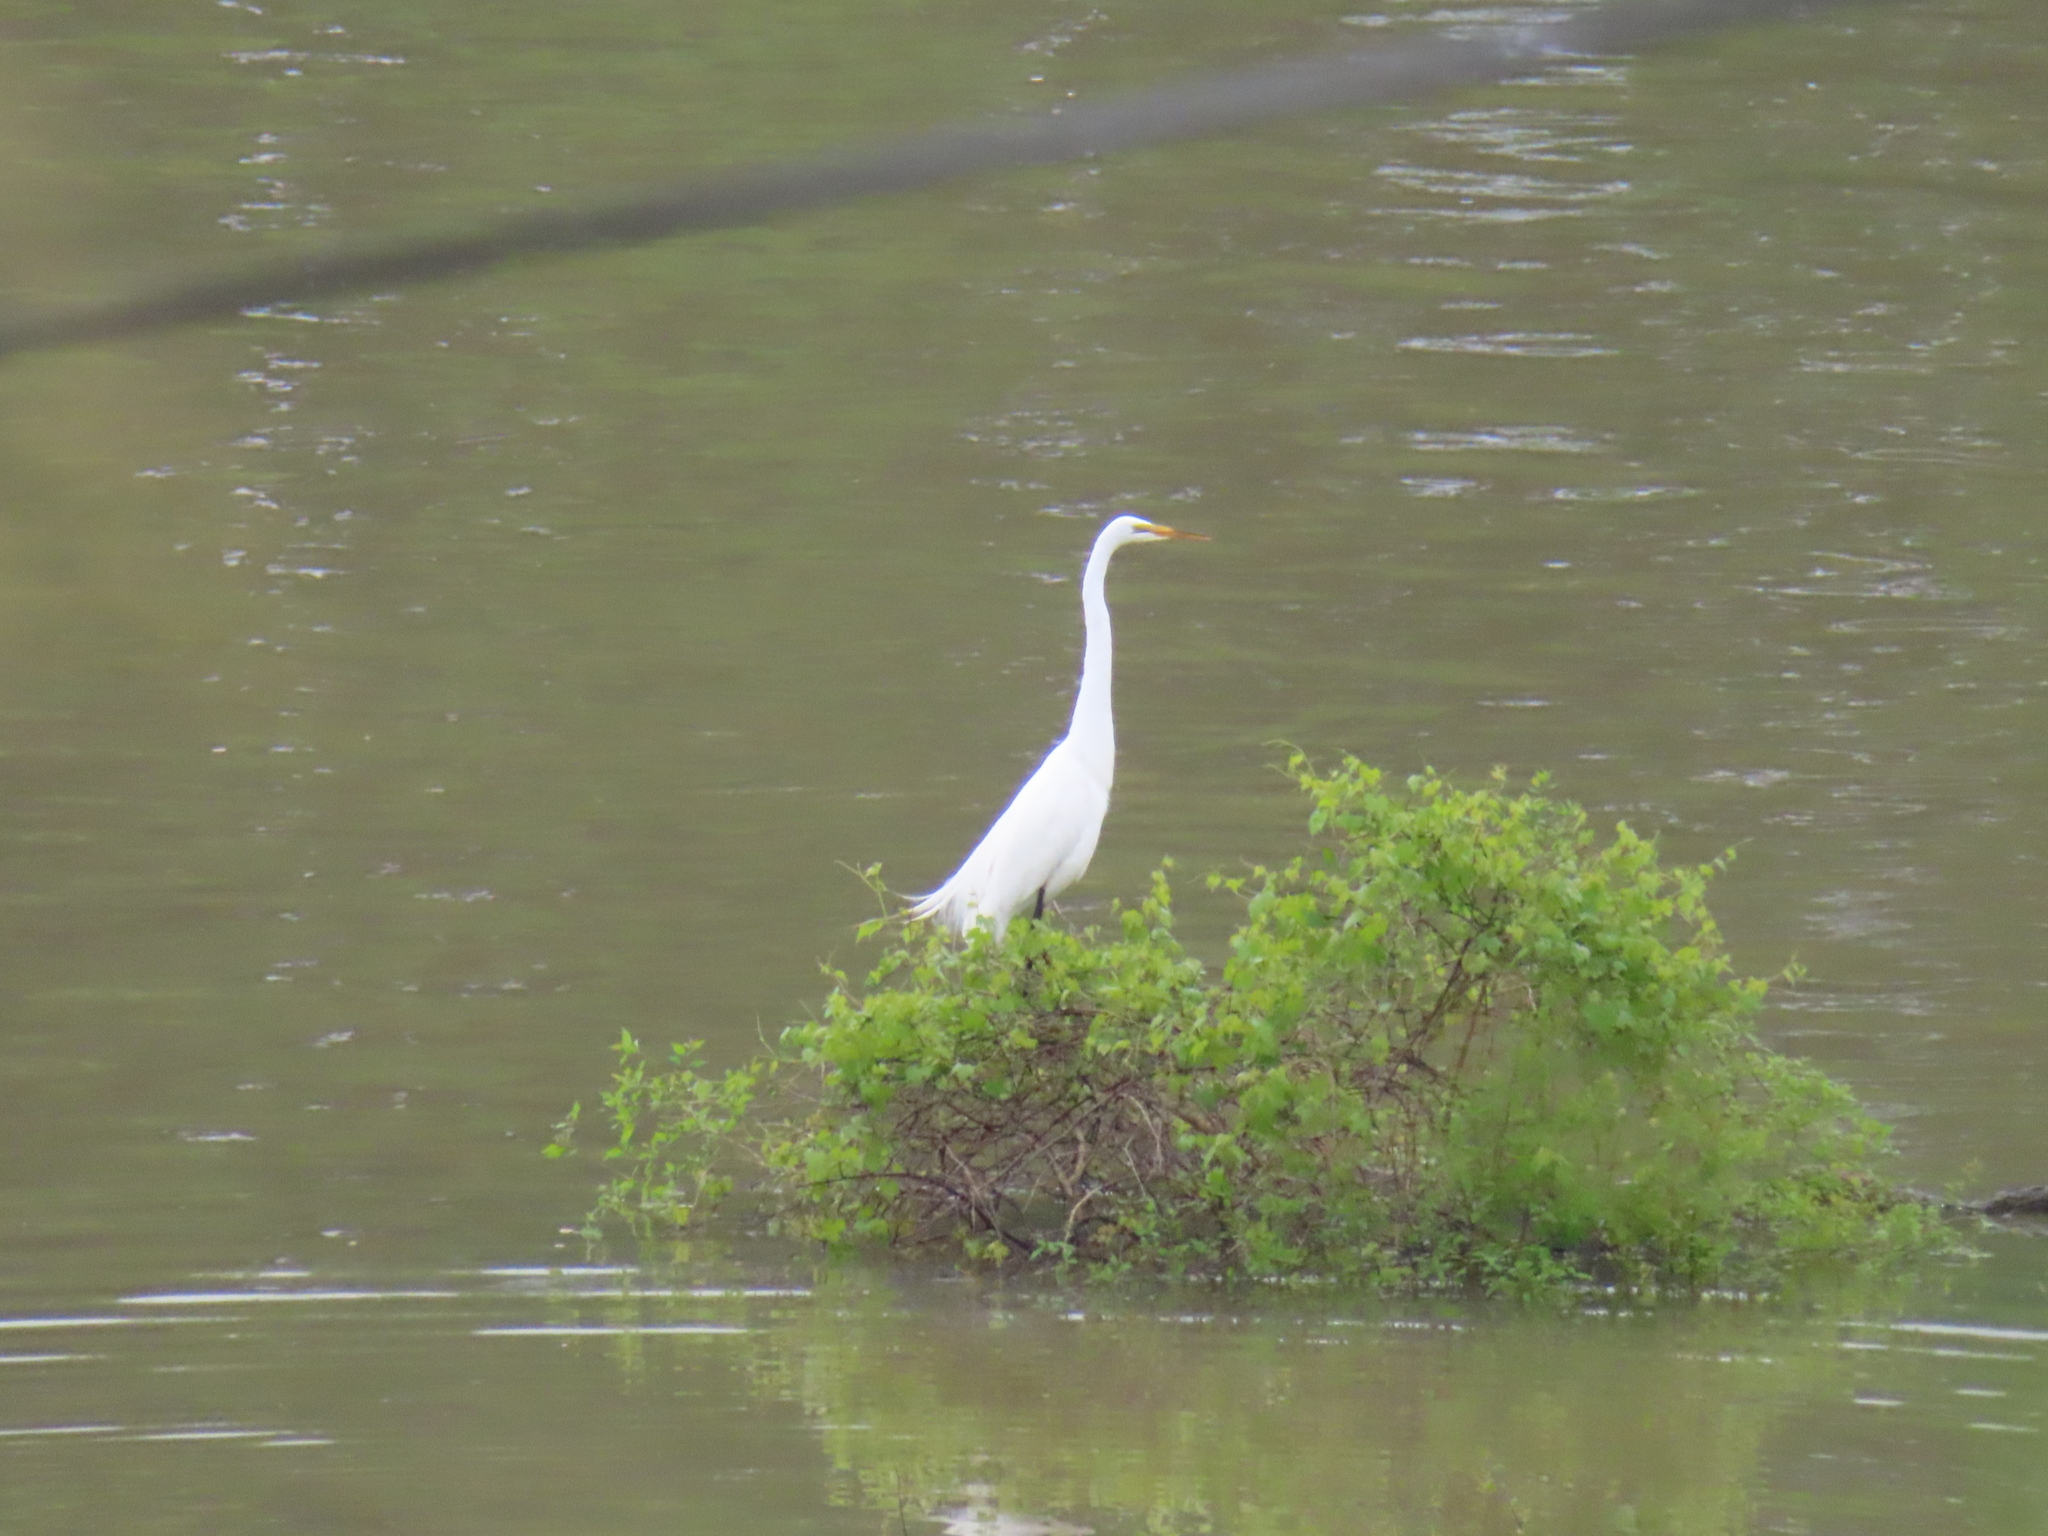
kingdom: Animalia
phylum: Chordata
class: Aves
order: Pelecaniformes
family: Ardeidae
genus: Ardea
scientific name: Ardea alba
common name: Great egret
